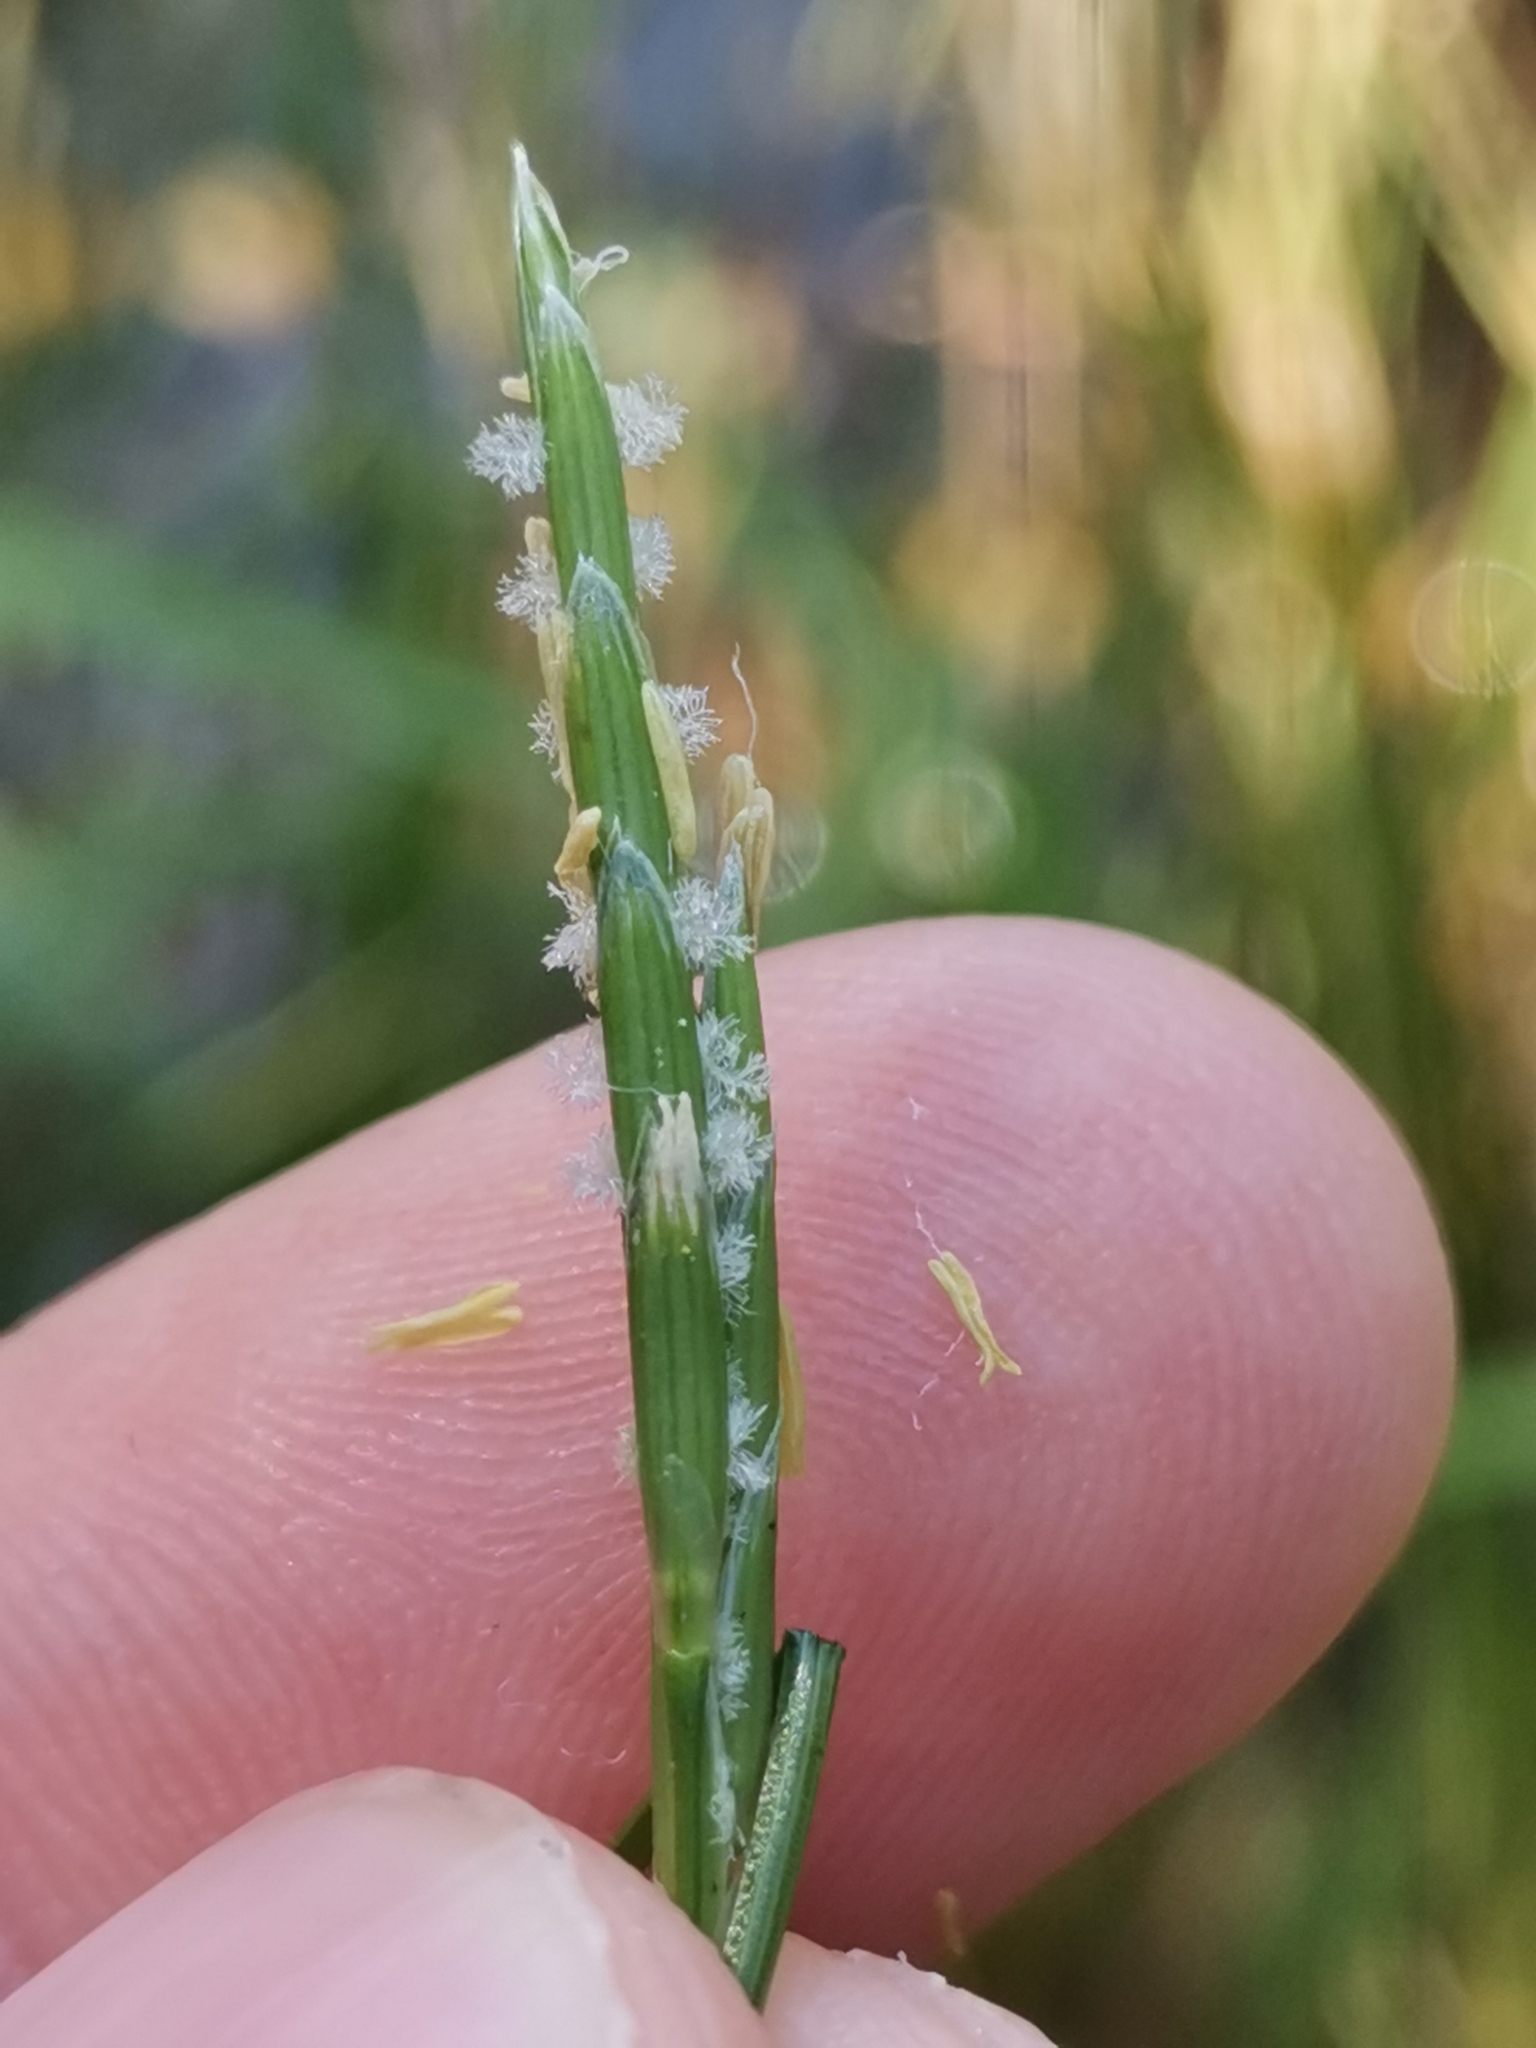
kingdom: Plantae
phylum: Tracheophyta
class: Liliopsida
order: Poales
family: Poaceae
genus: Glyceria
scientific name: Glyceria fluitans
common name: Floating sweet-grass
